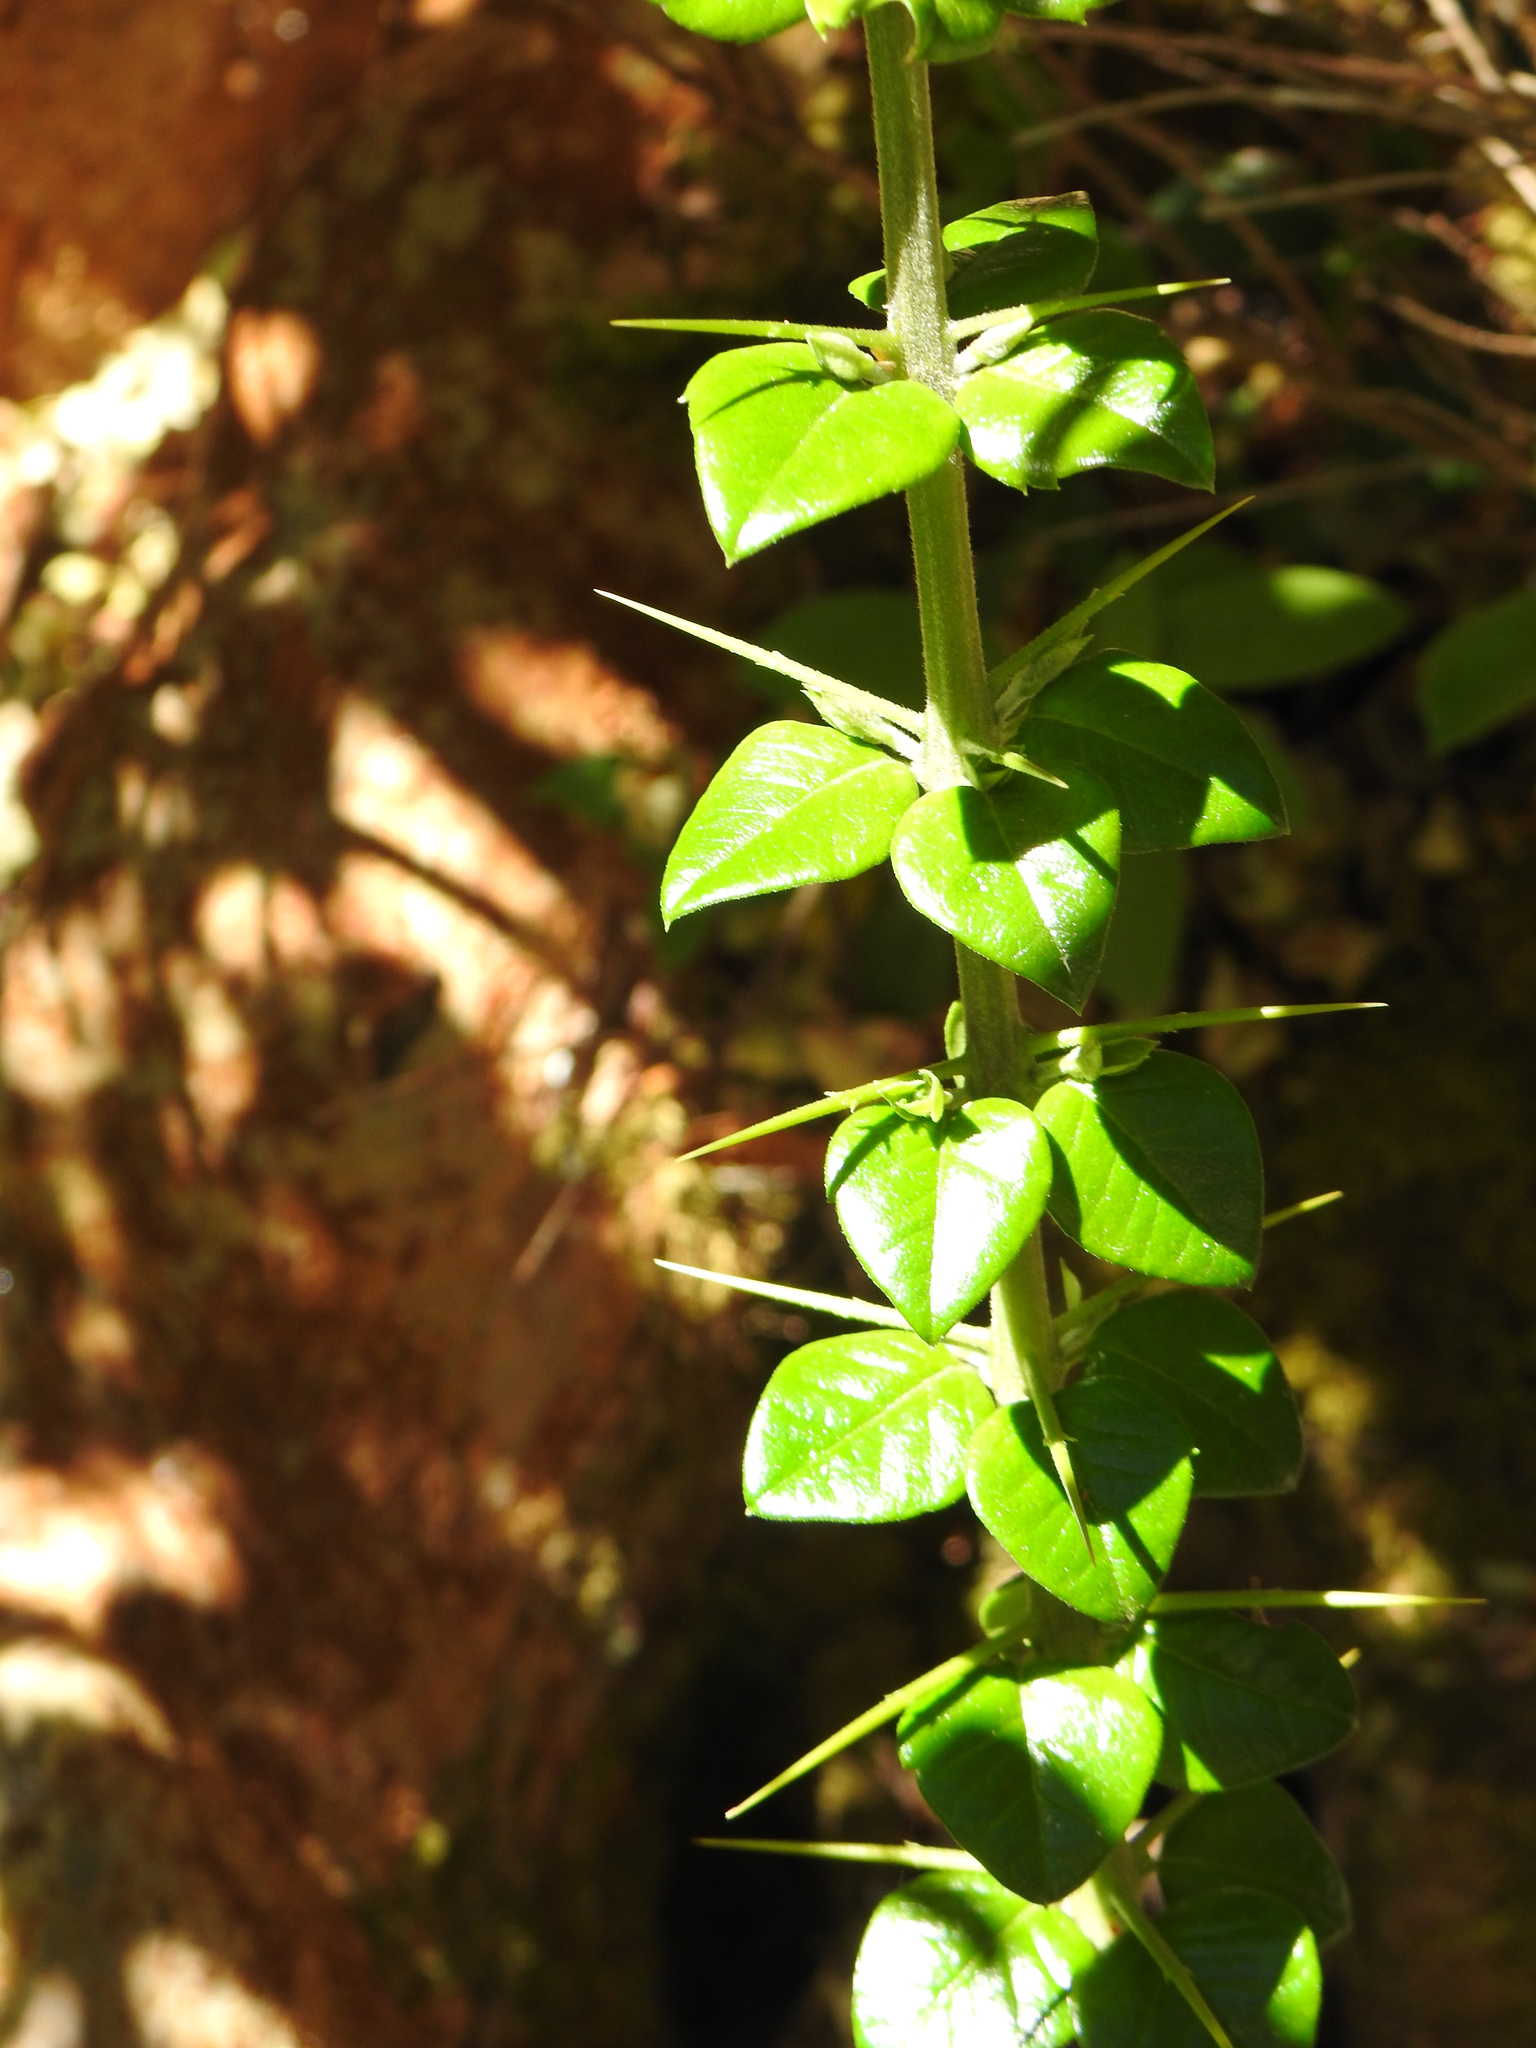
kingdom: Plantae
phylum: Tracheophyta
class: Magnoliopsida
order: Lamiales
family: Verbenaceae
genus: Rhaphithamnus
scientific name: Rhaphithamnus spinosus
